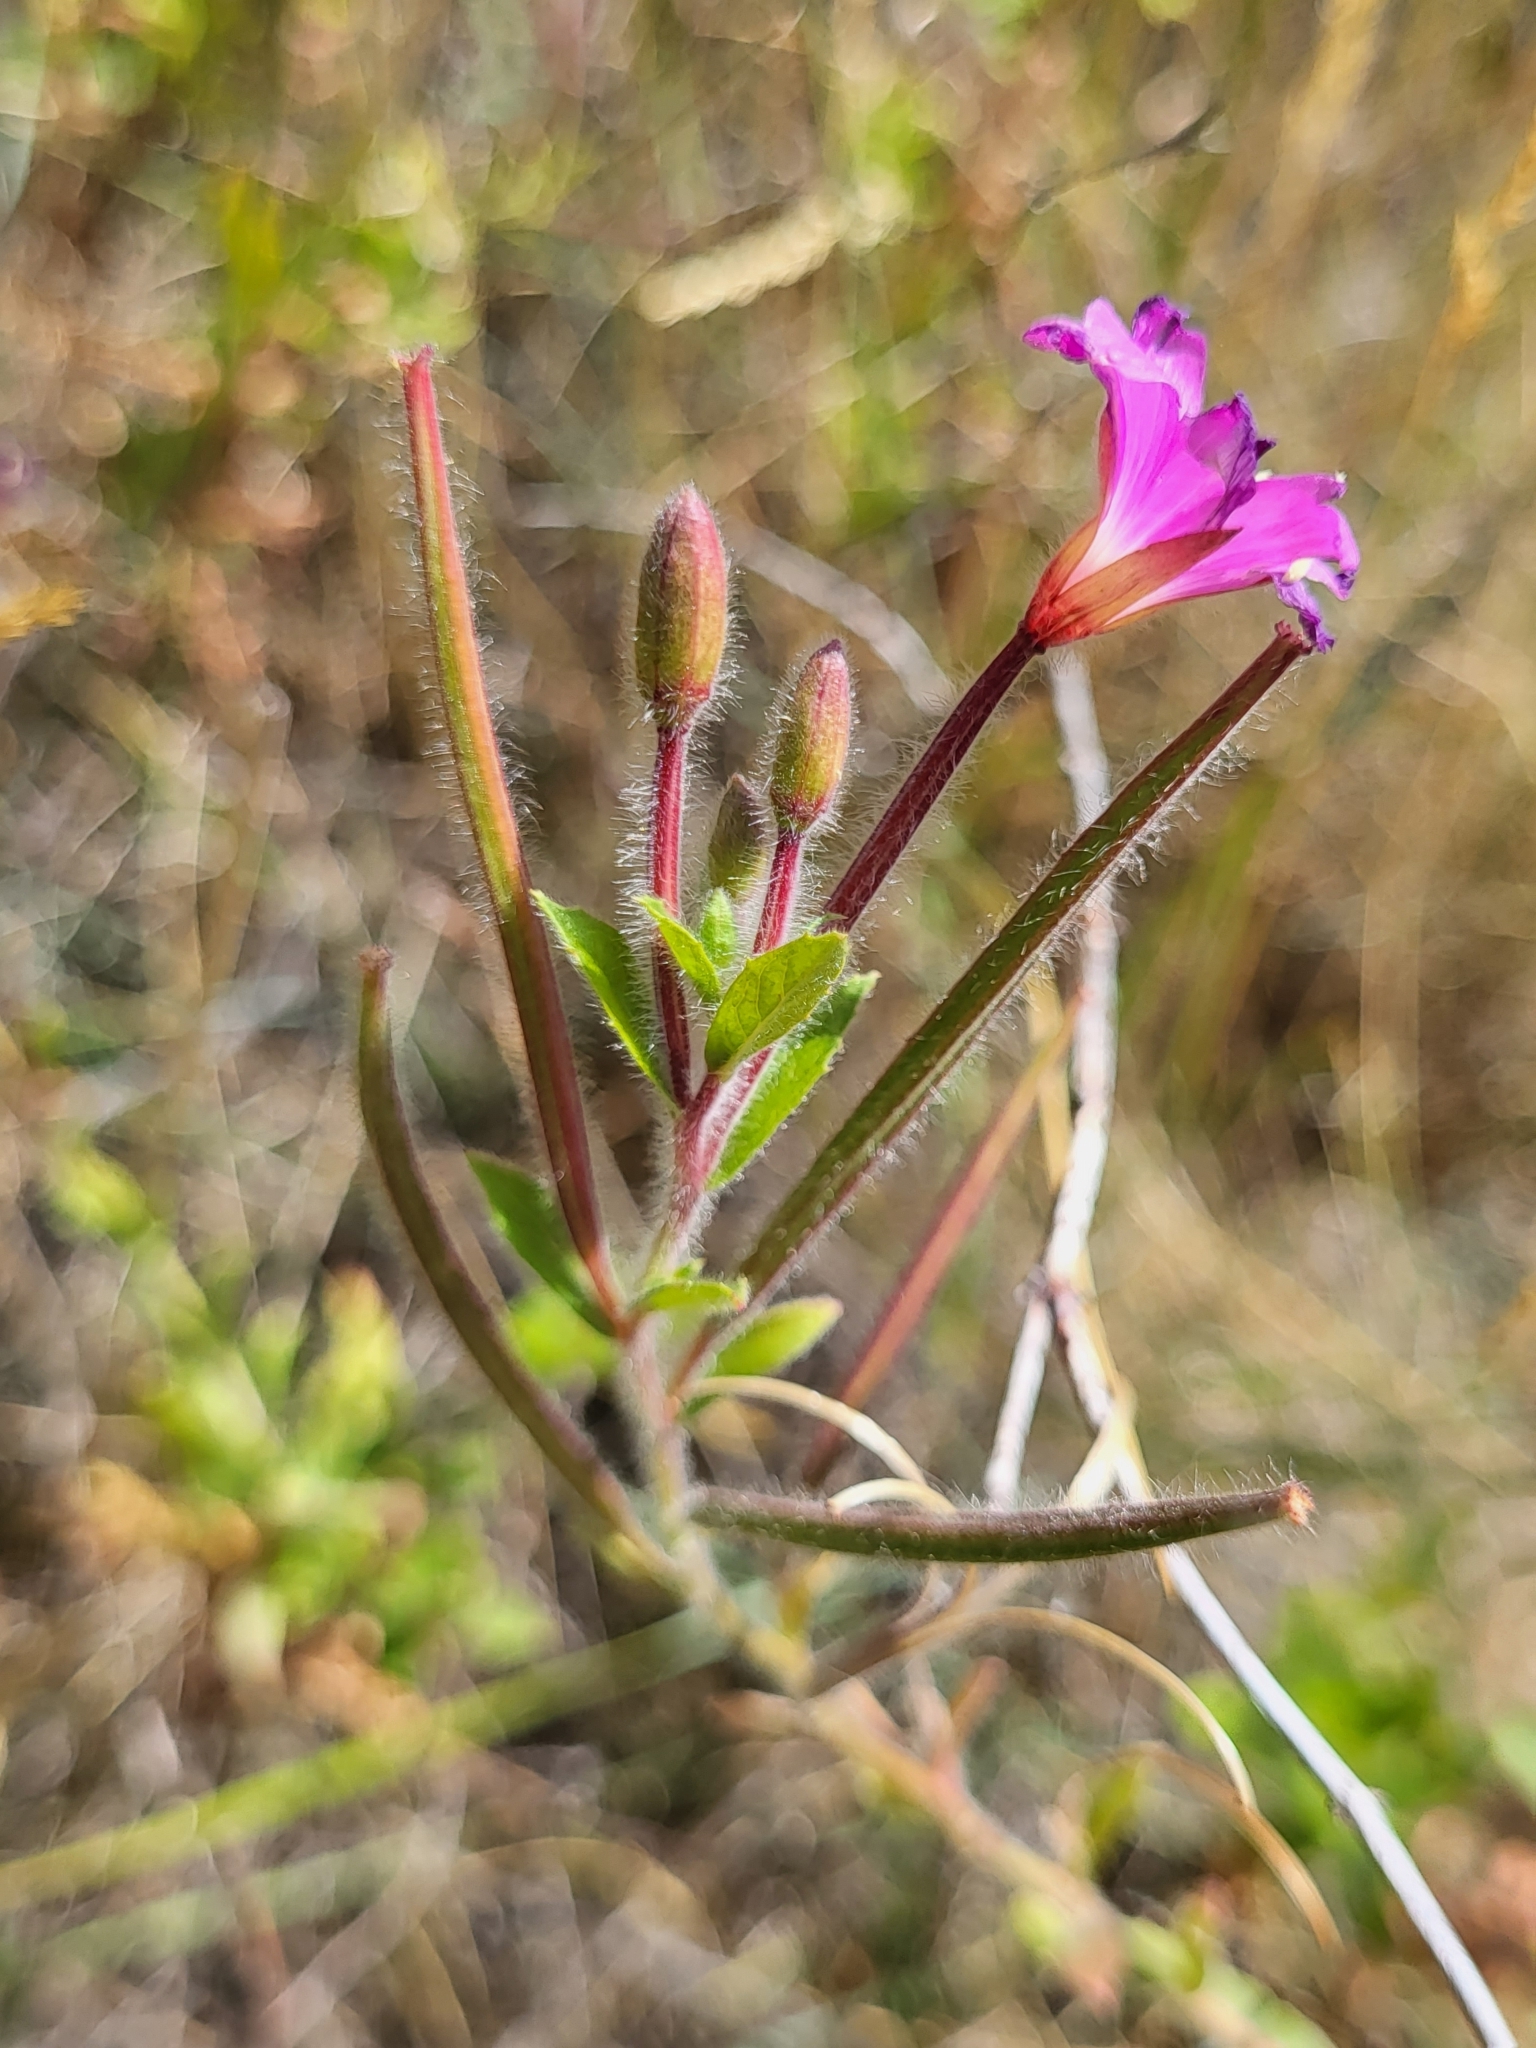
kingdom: Plantae
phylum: Tracheophyta
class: Magnoliopsida
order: Myrtales
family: Onagraceae
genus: Epilobium
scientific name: Epilobium hirsutum
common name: Great willowherb
